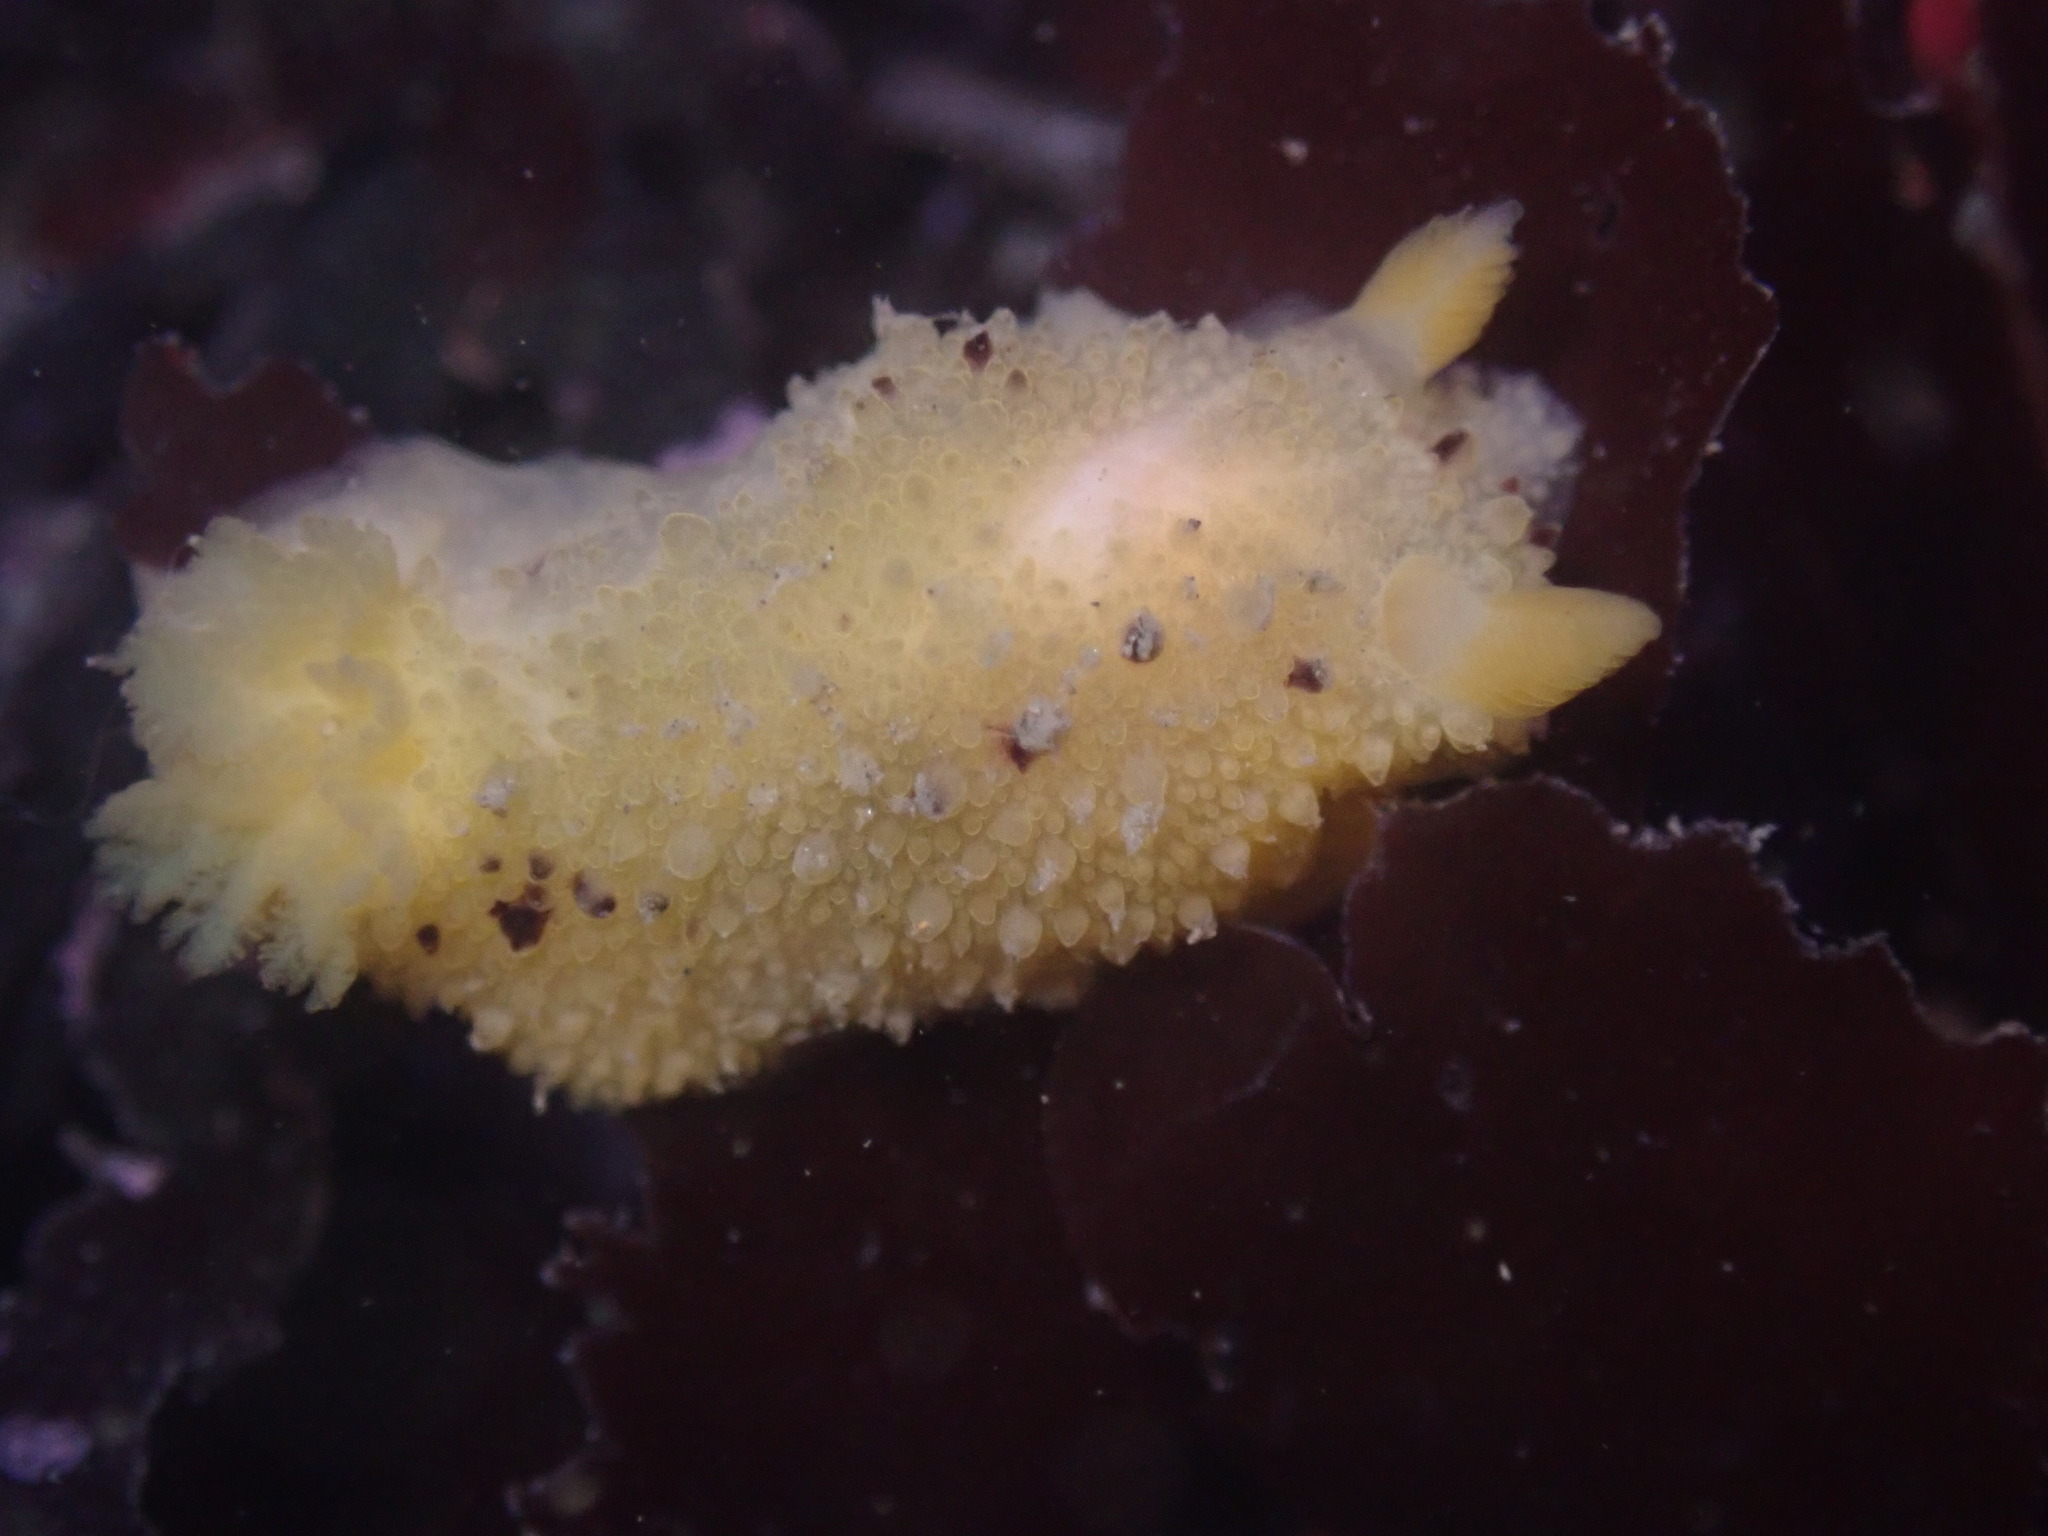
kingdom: Animalia
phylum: Mollusca
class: Gastropoda
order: Nudibranchia
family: Dorididae
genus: Doris
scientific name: Doris montereyensis
